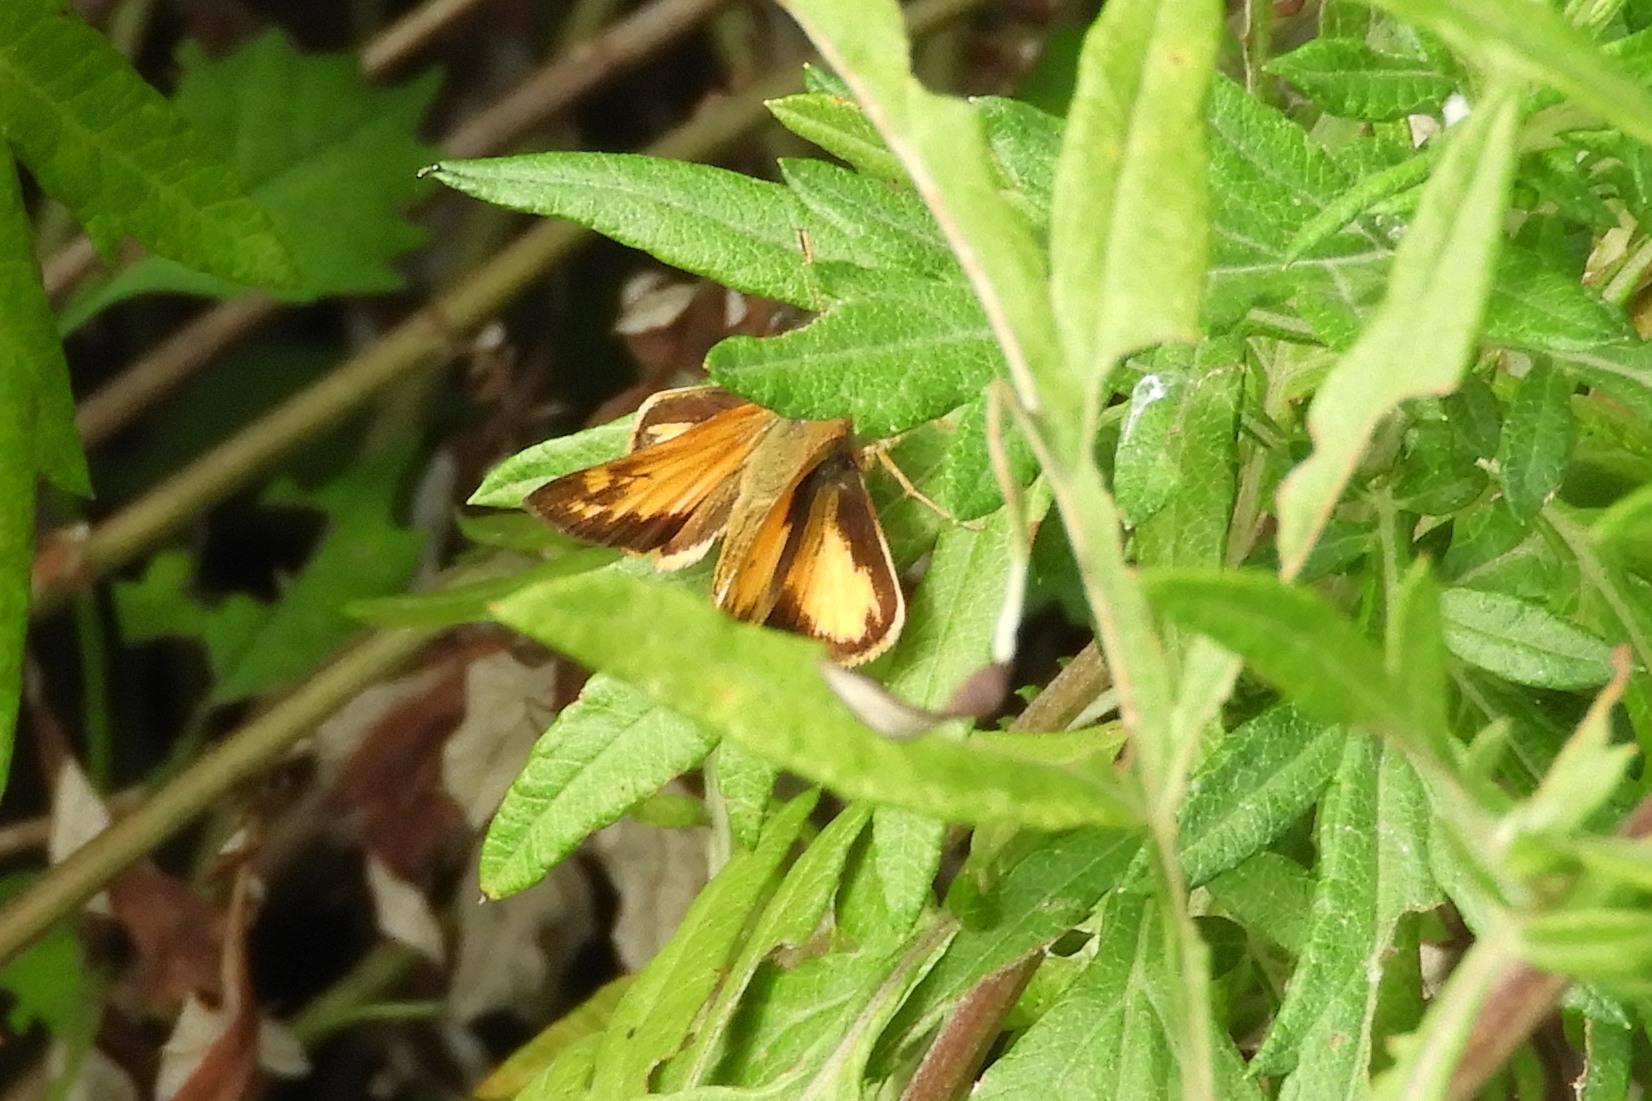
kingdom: Animalia
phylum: Arthropoda
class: Insecta
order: Lepidoptera
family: Hesperiidae
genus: Lon
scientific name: Lon zabulon
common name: Zabulon skipper
